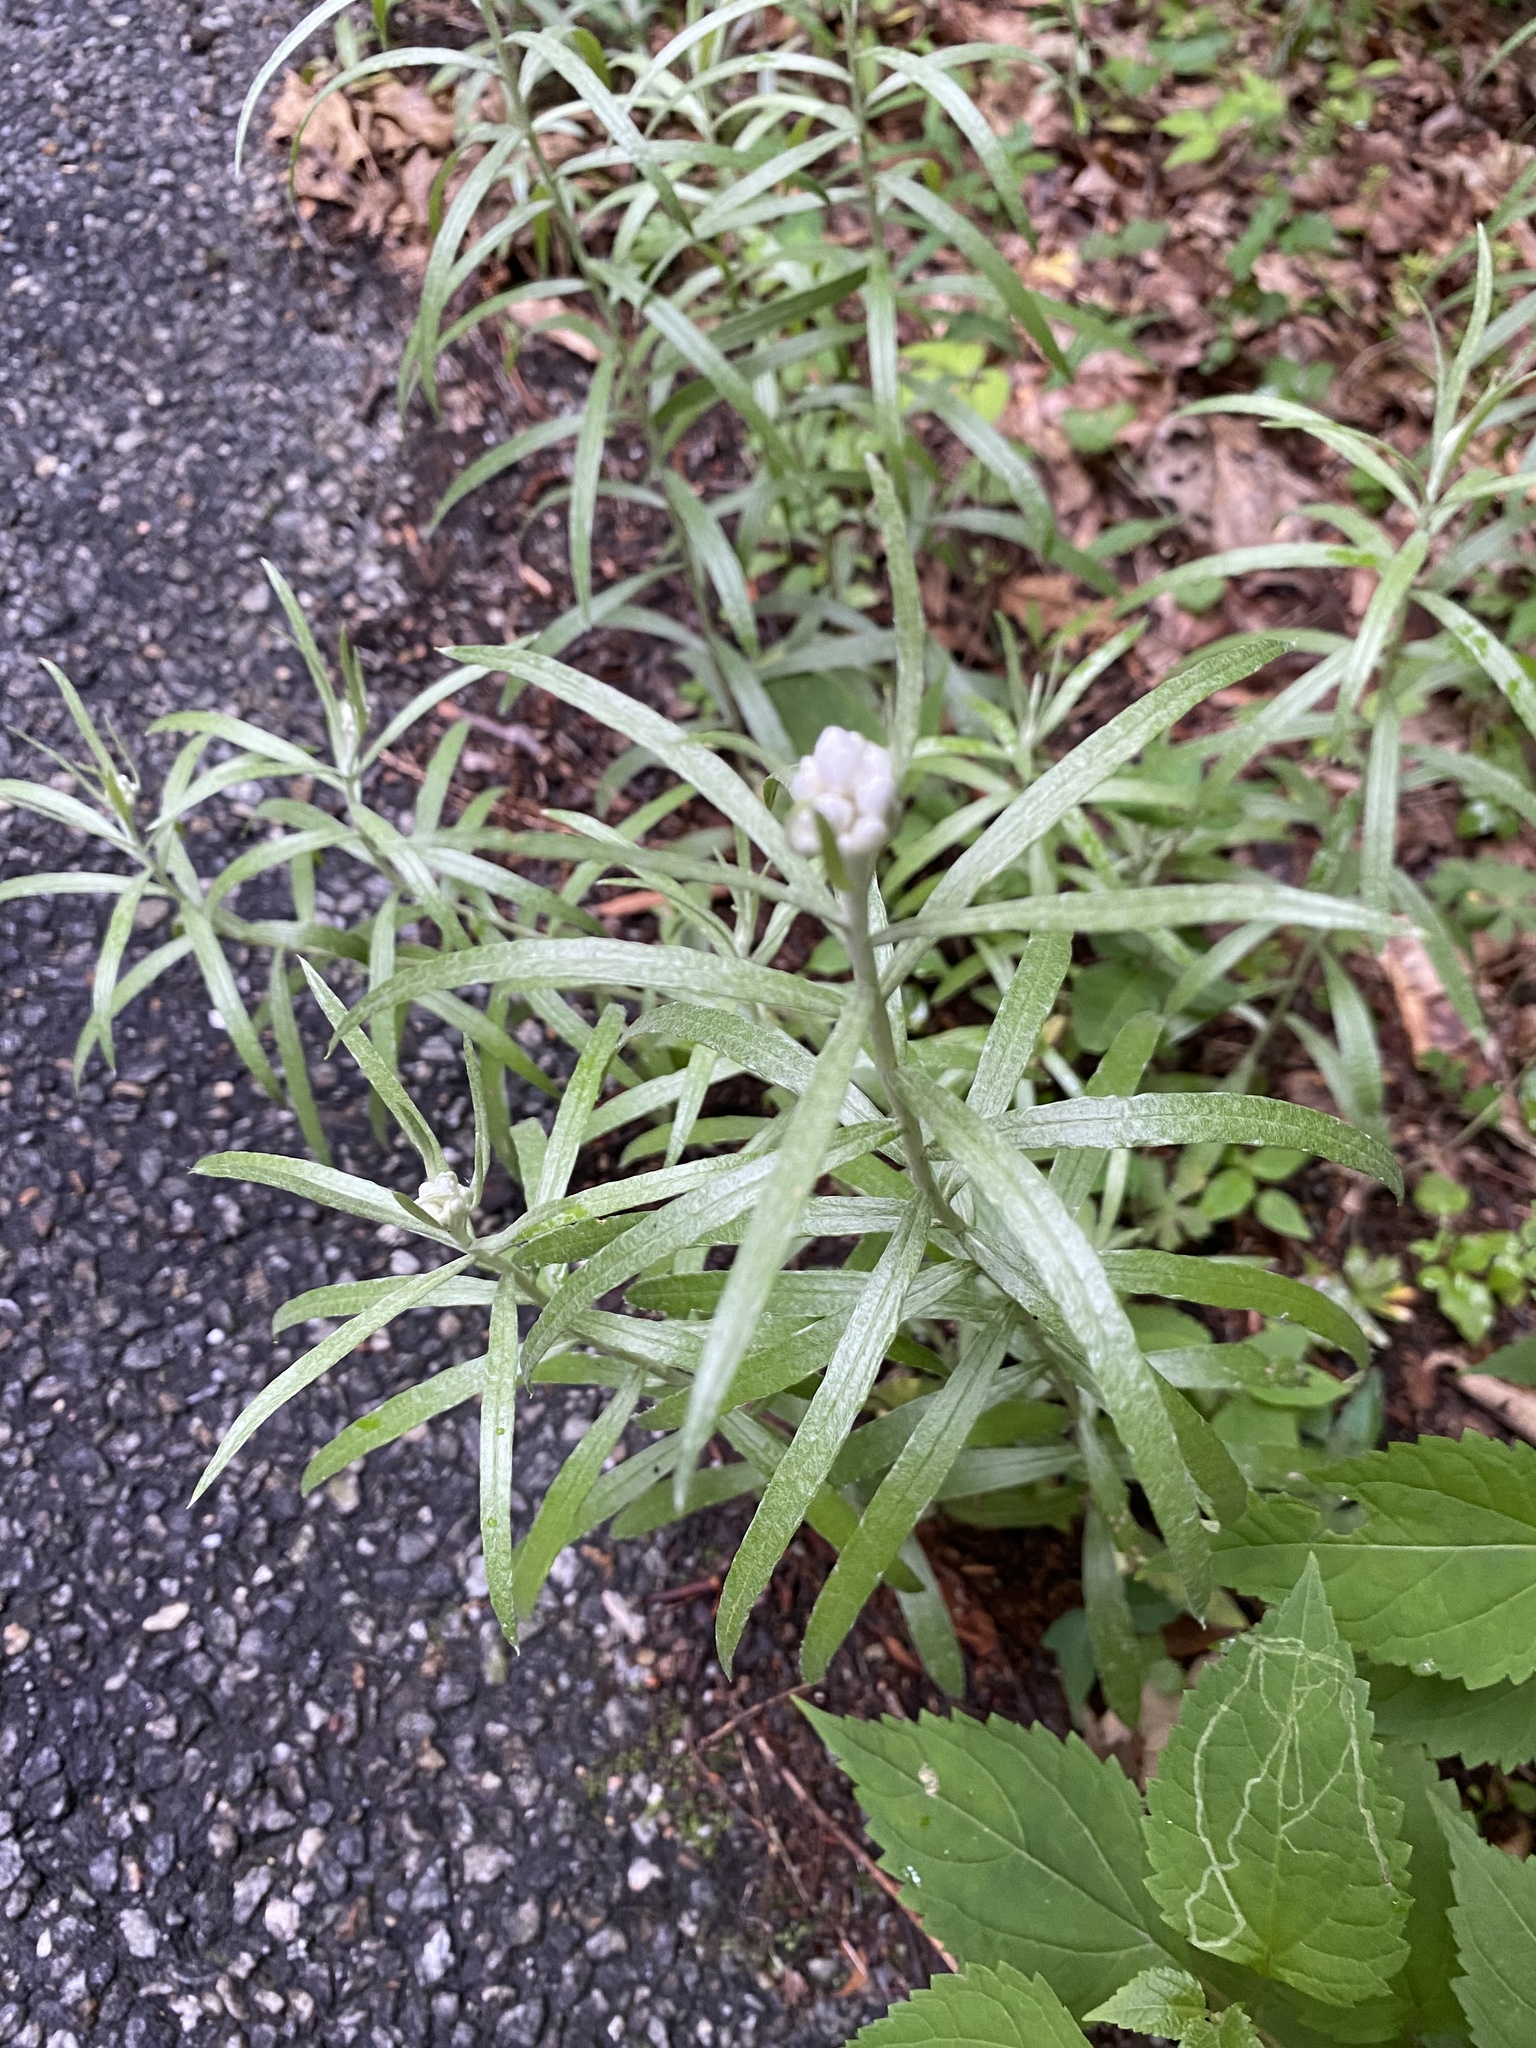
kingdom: Plantae
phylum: Tracheophyta
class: Magnoliopsida
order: Asterales
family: Asteraceae
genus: Anaphalis
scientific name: Anaphalis margaritacea
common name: Pearly everlasting
